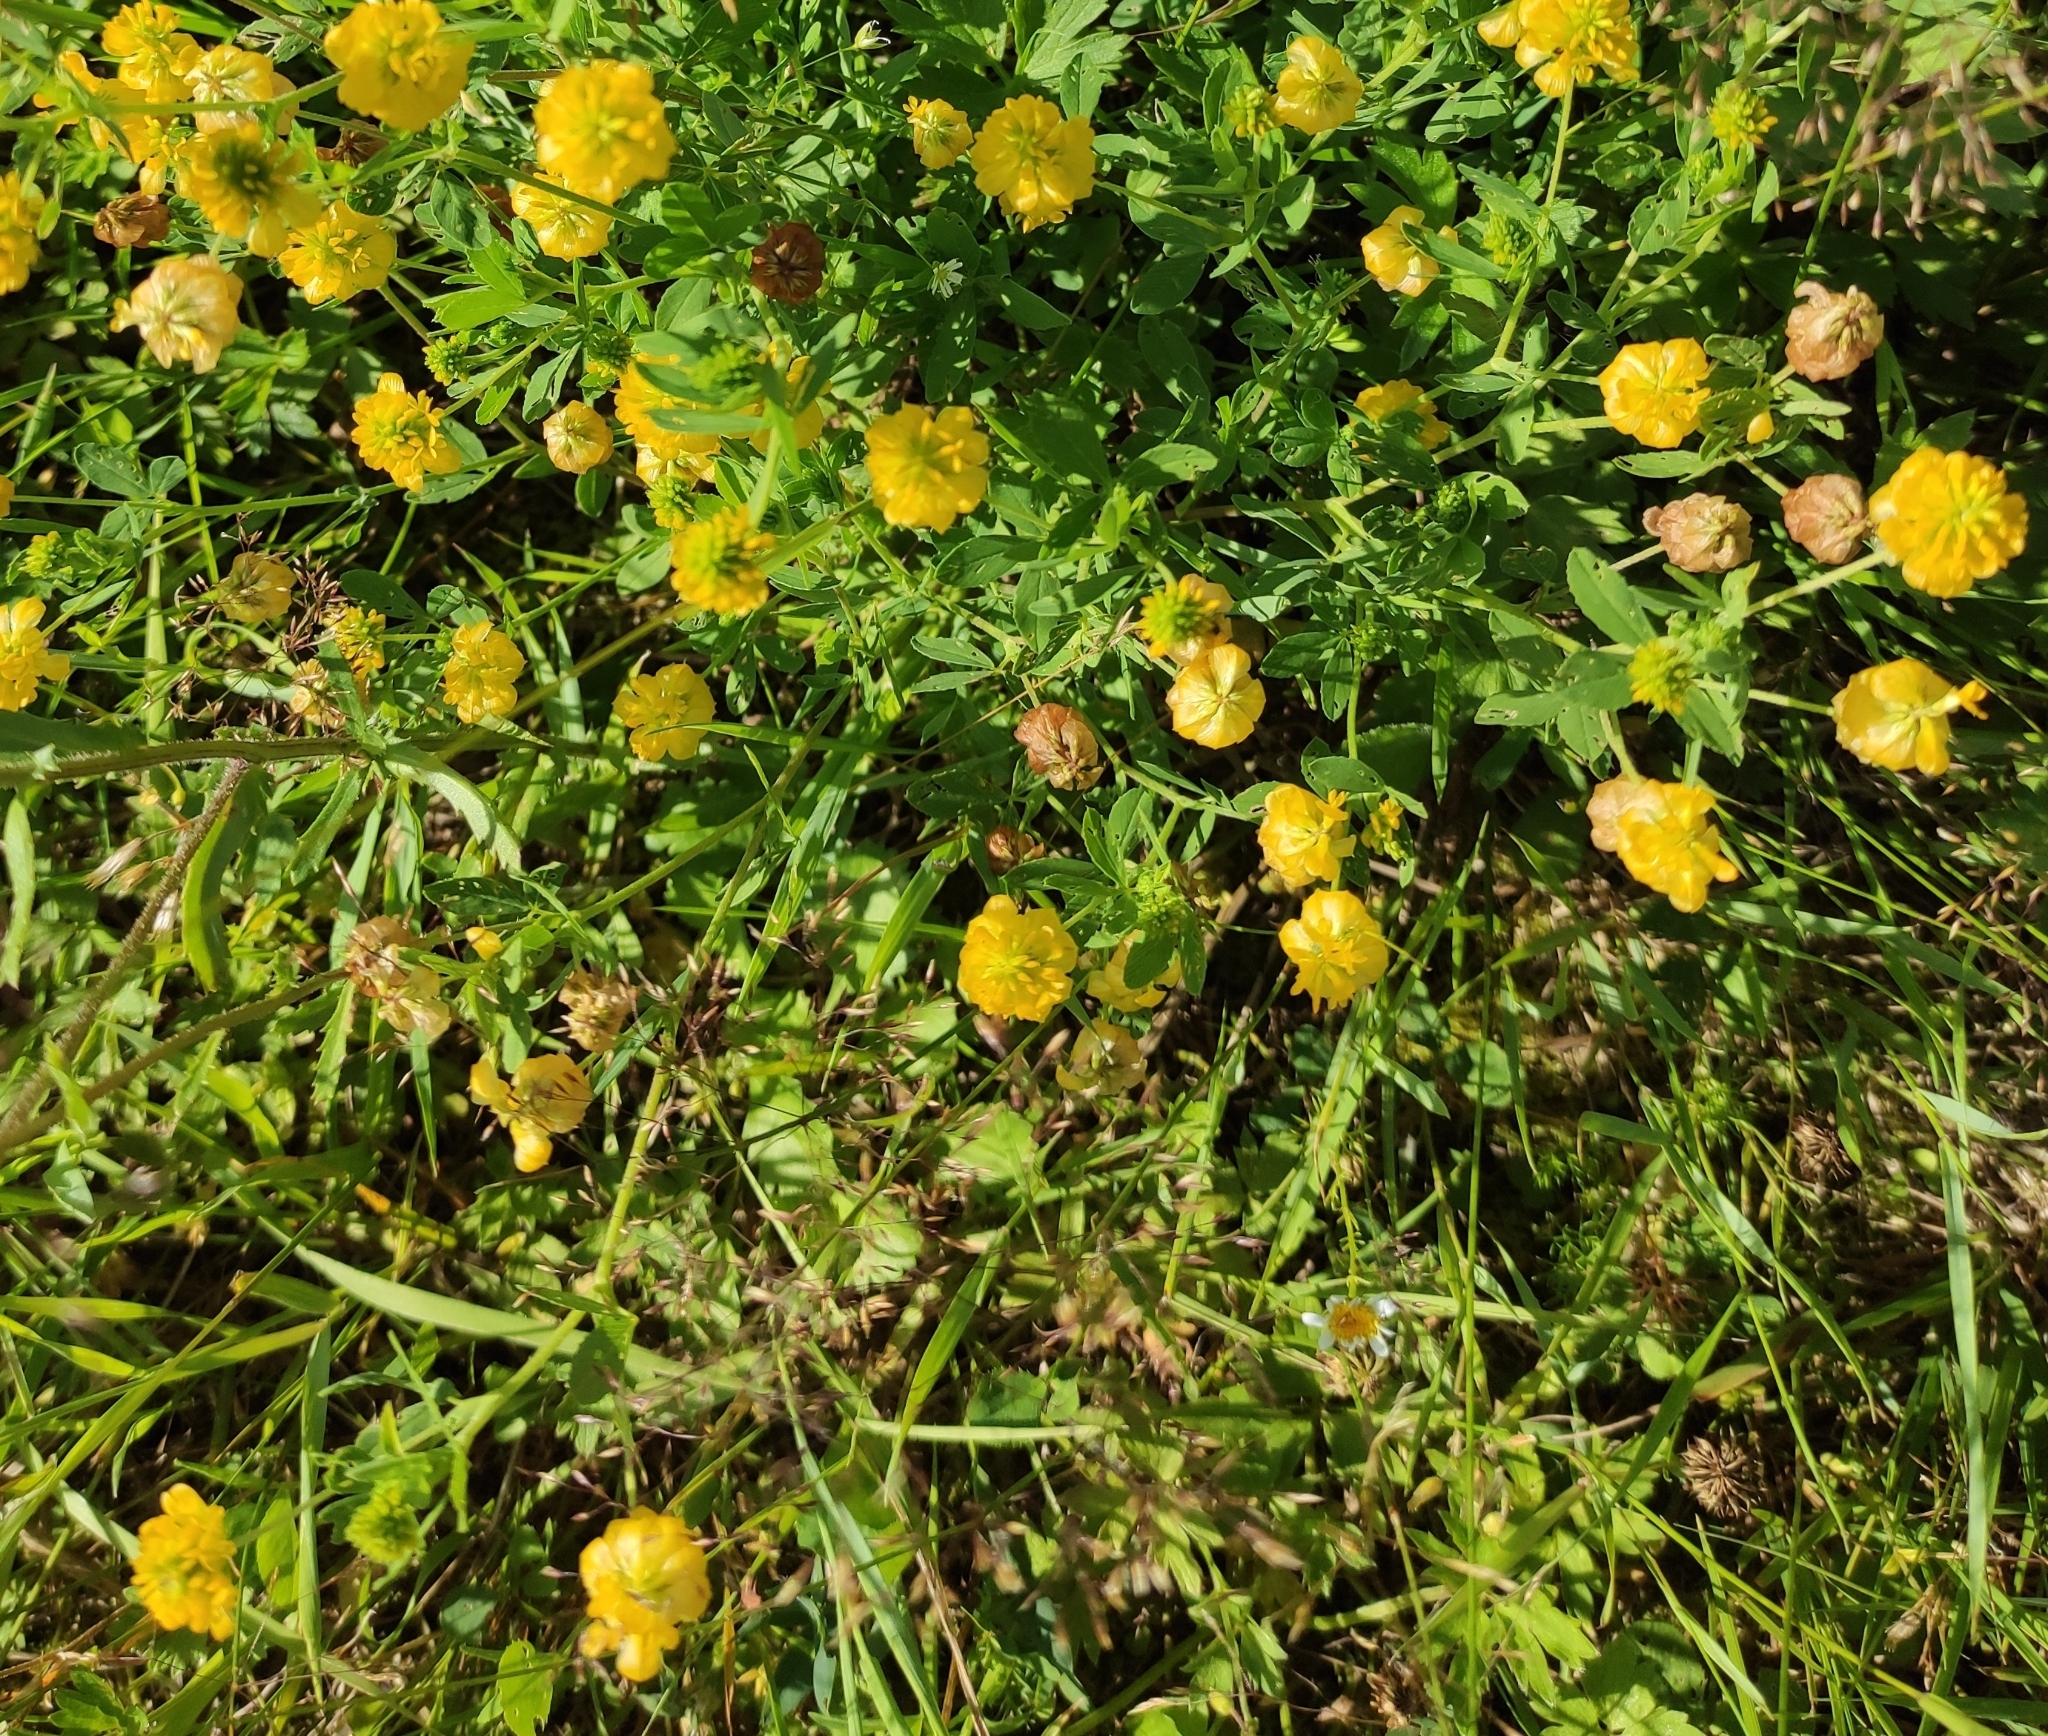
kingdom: Plantae
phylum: Tracheophyta
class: Magnoliopsida
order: Fabales
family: Fabaceae
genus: Trifolium
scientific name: Trifolium aureum
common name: Golden clover
